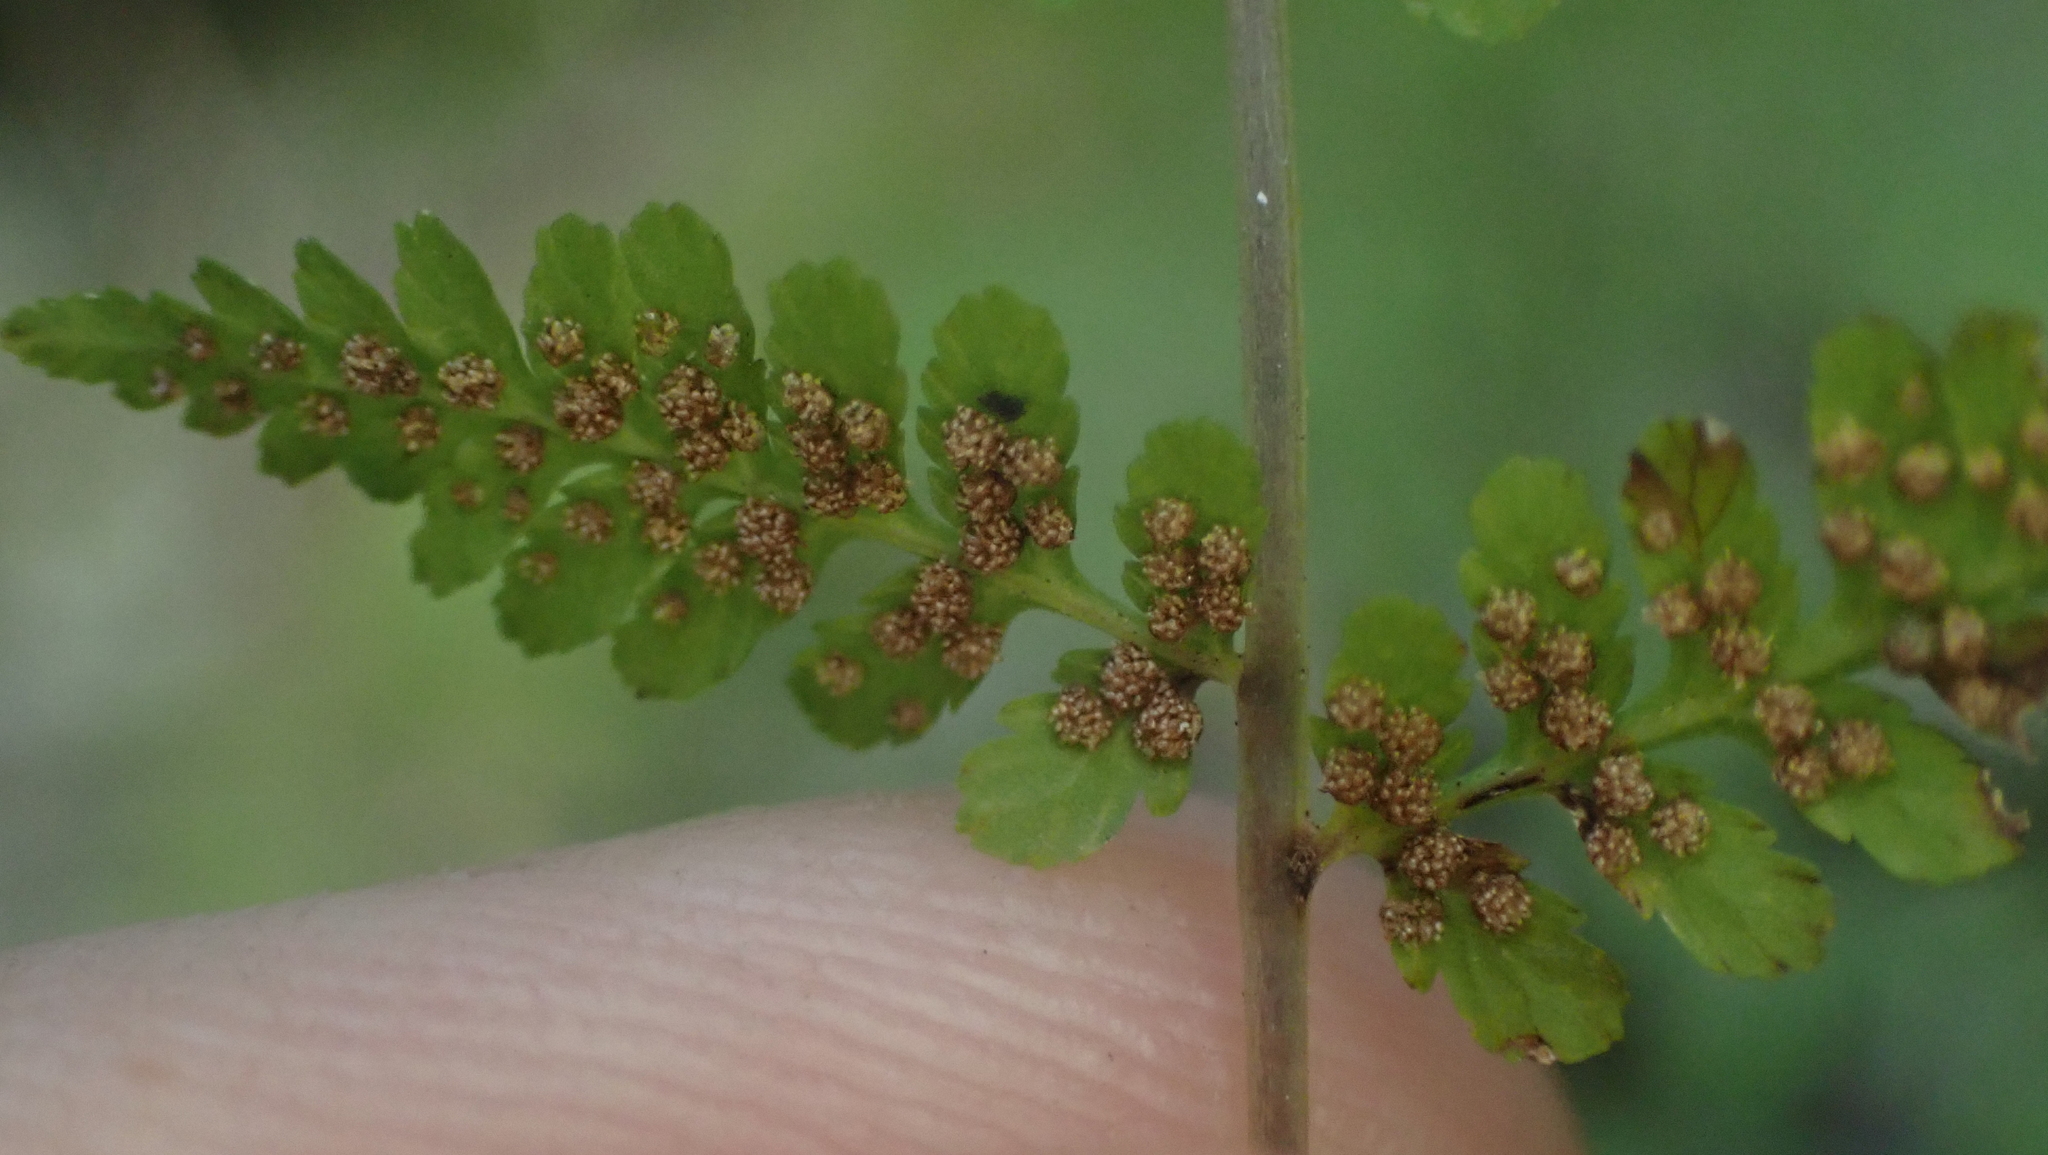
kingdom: Plantae
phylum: Tracheophyta
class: Polypodiopsida
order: Polypodiales
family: Cystopteridaceae
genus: Cystopteris
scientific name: Cystopteris bulbifera
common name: Bulblet bladder fern
